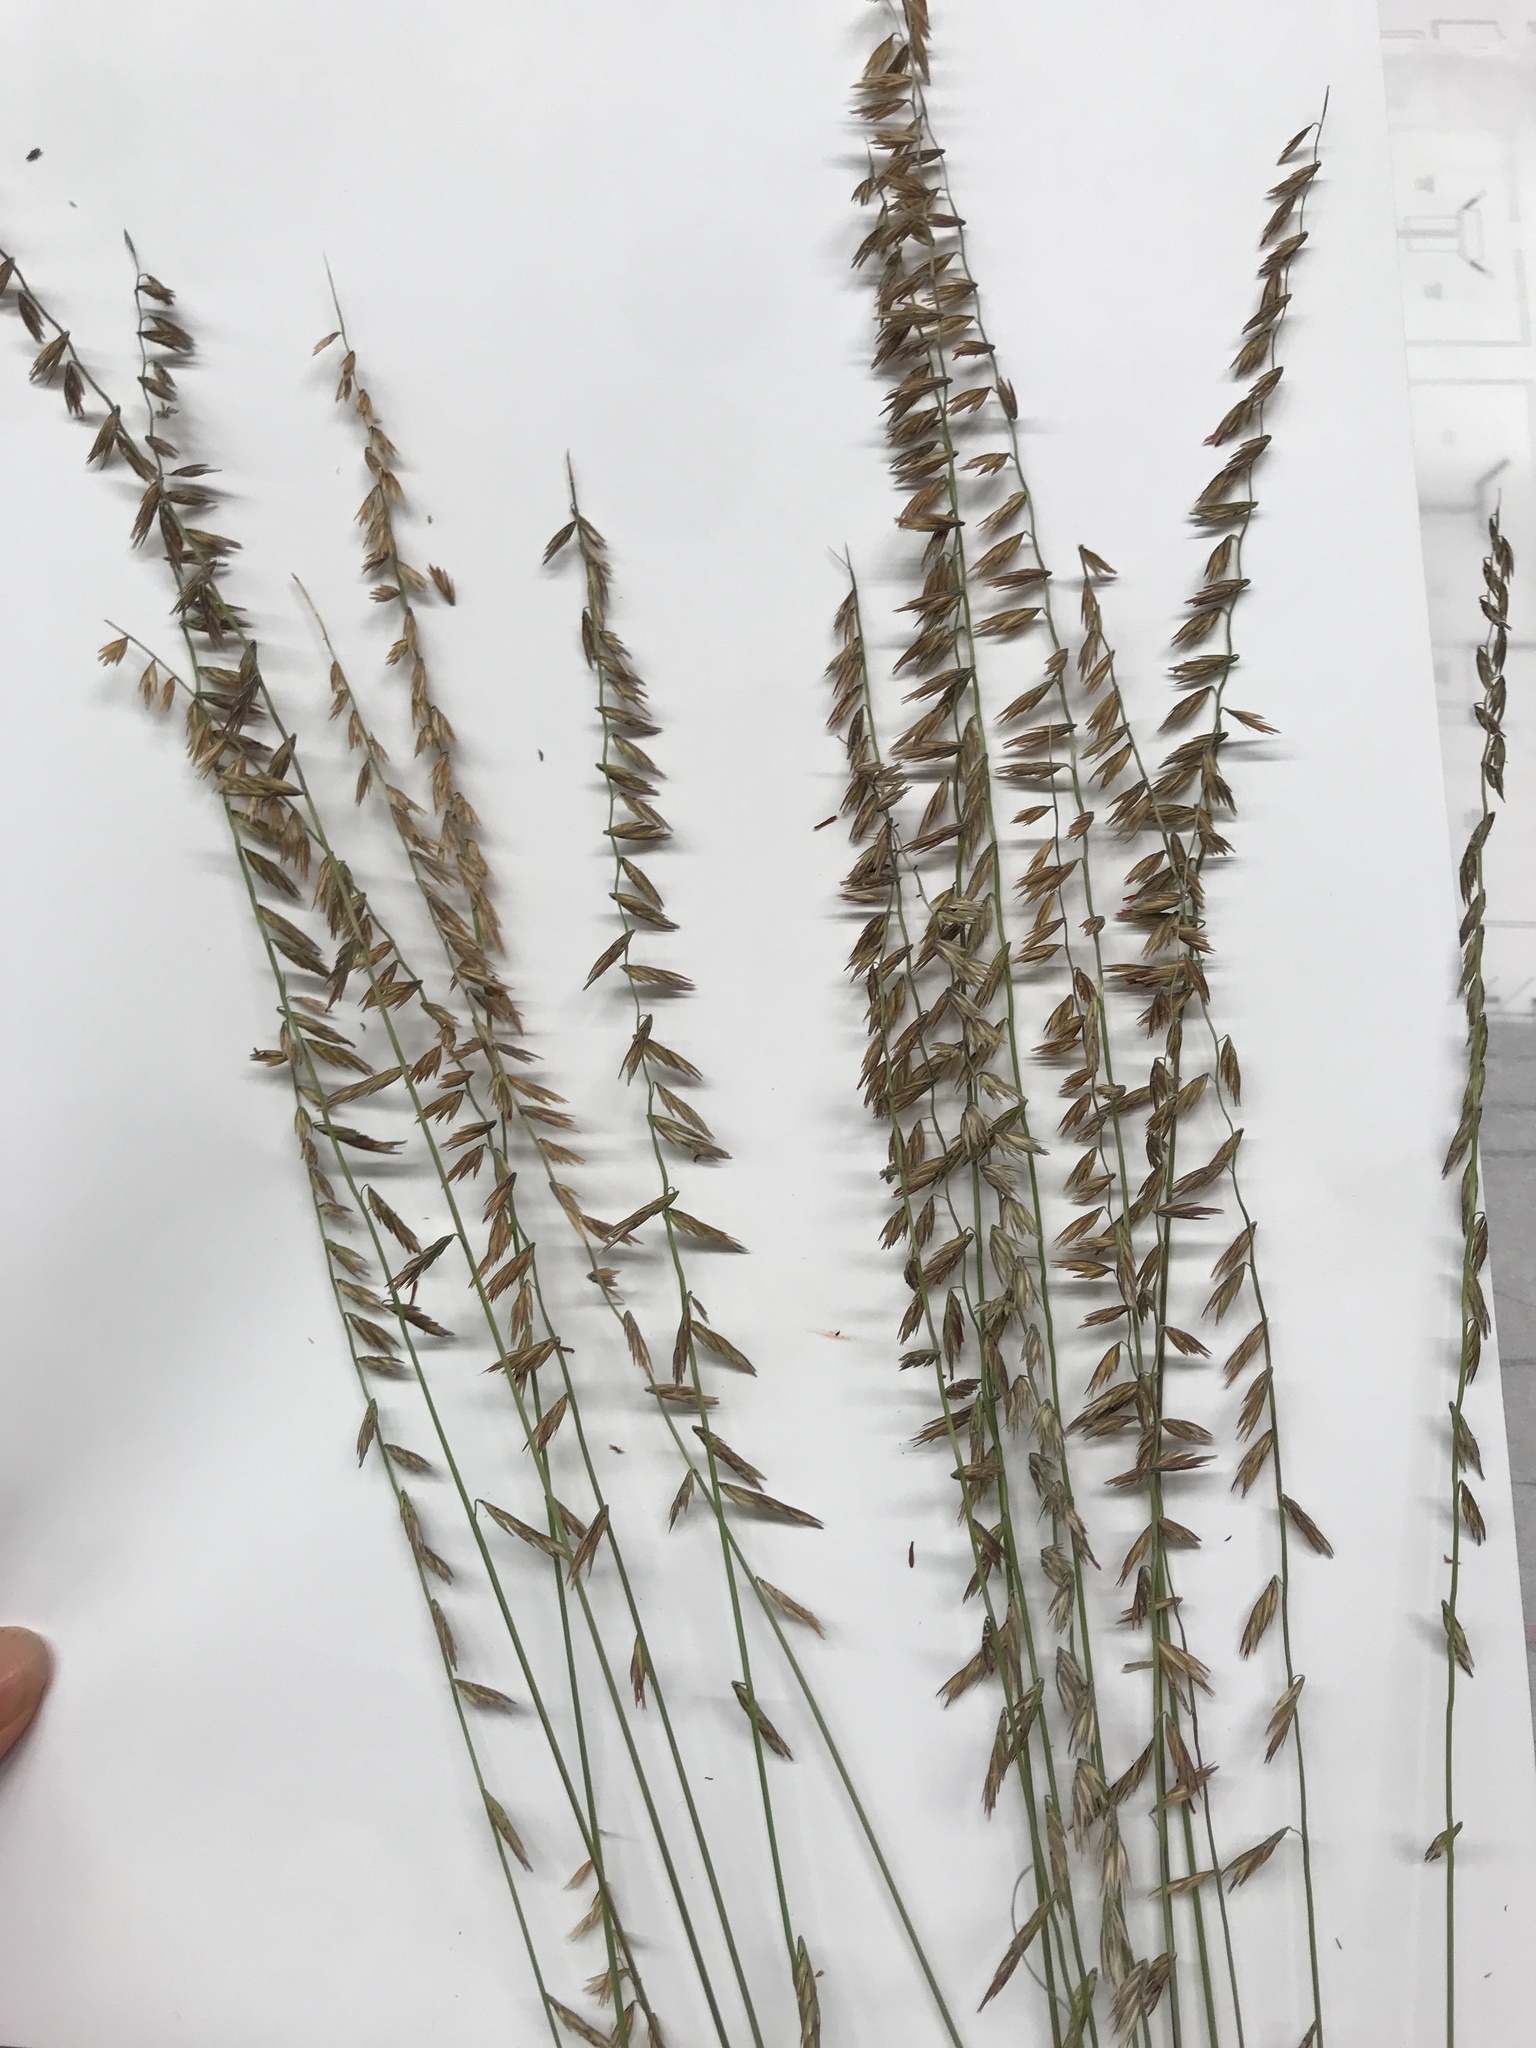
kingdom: Plantae
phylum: Tracheophyta
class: Liliopsida
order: Poales
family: Poaceae
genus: Bouteloua
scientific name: Bouteloua curtipendula
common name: Side-oats grama
